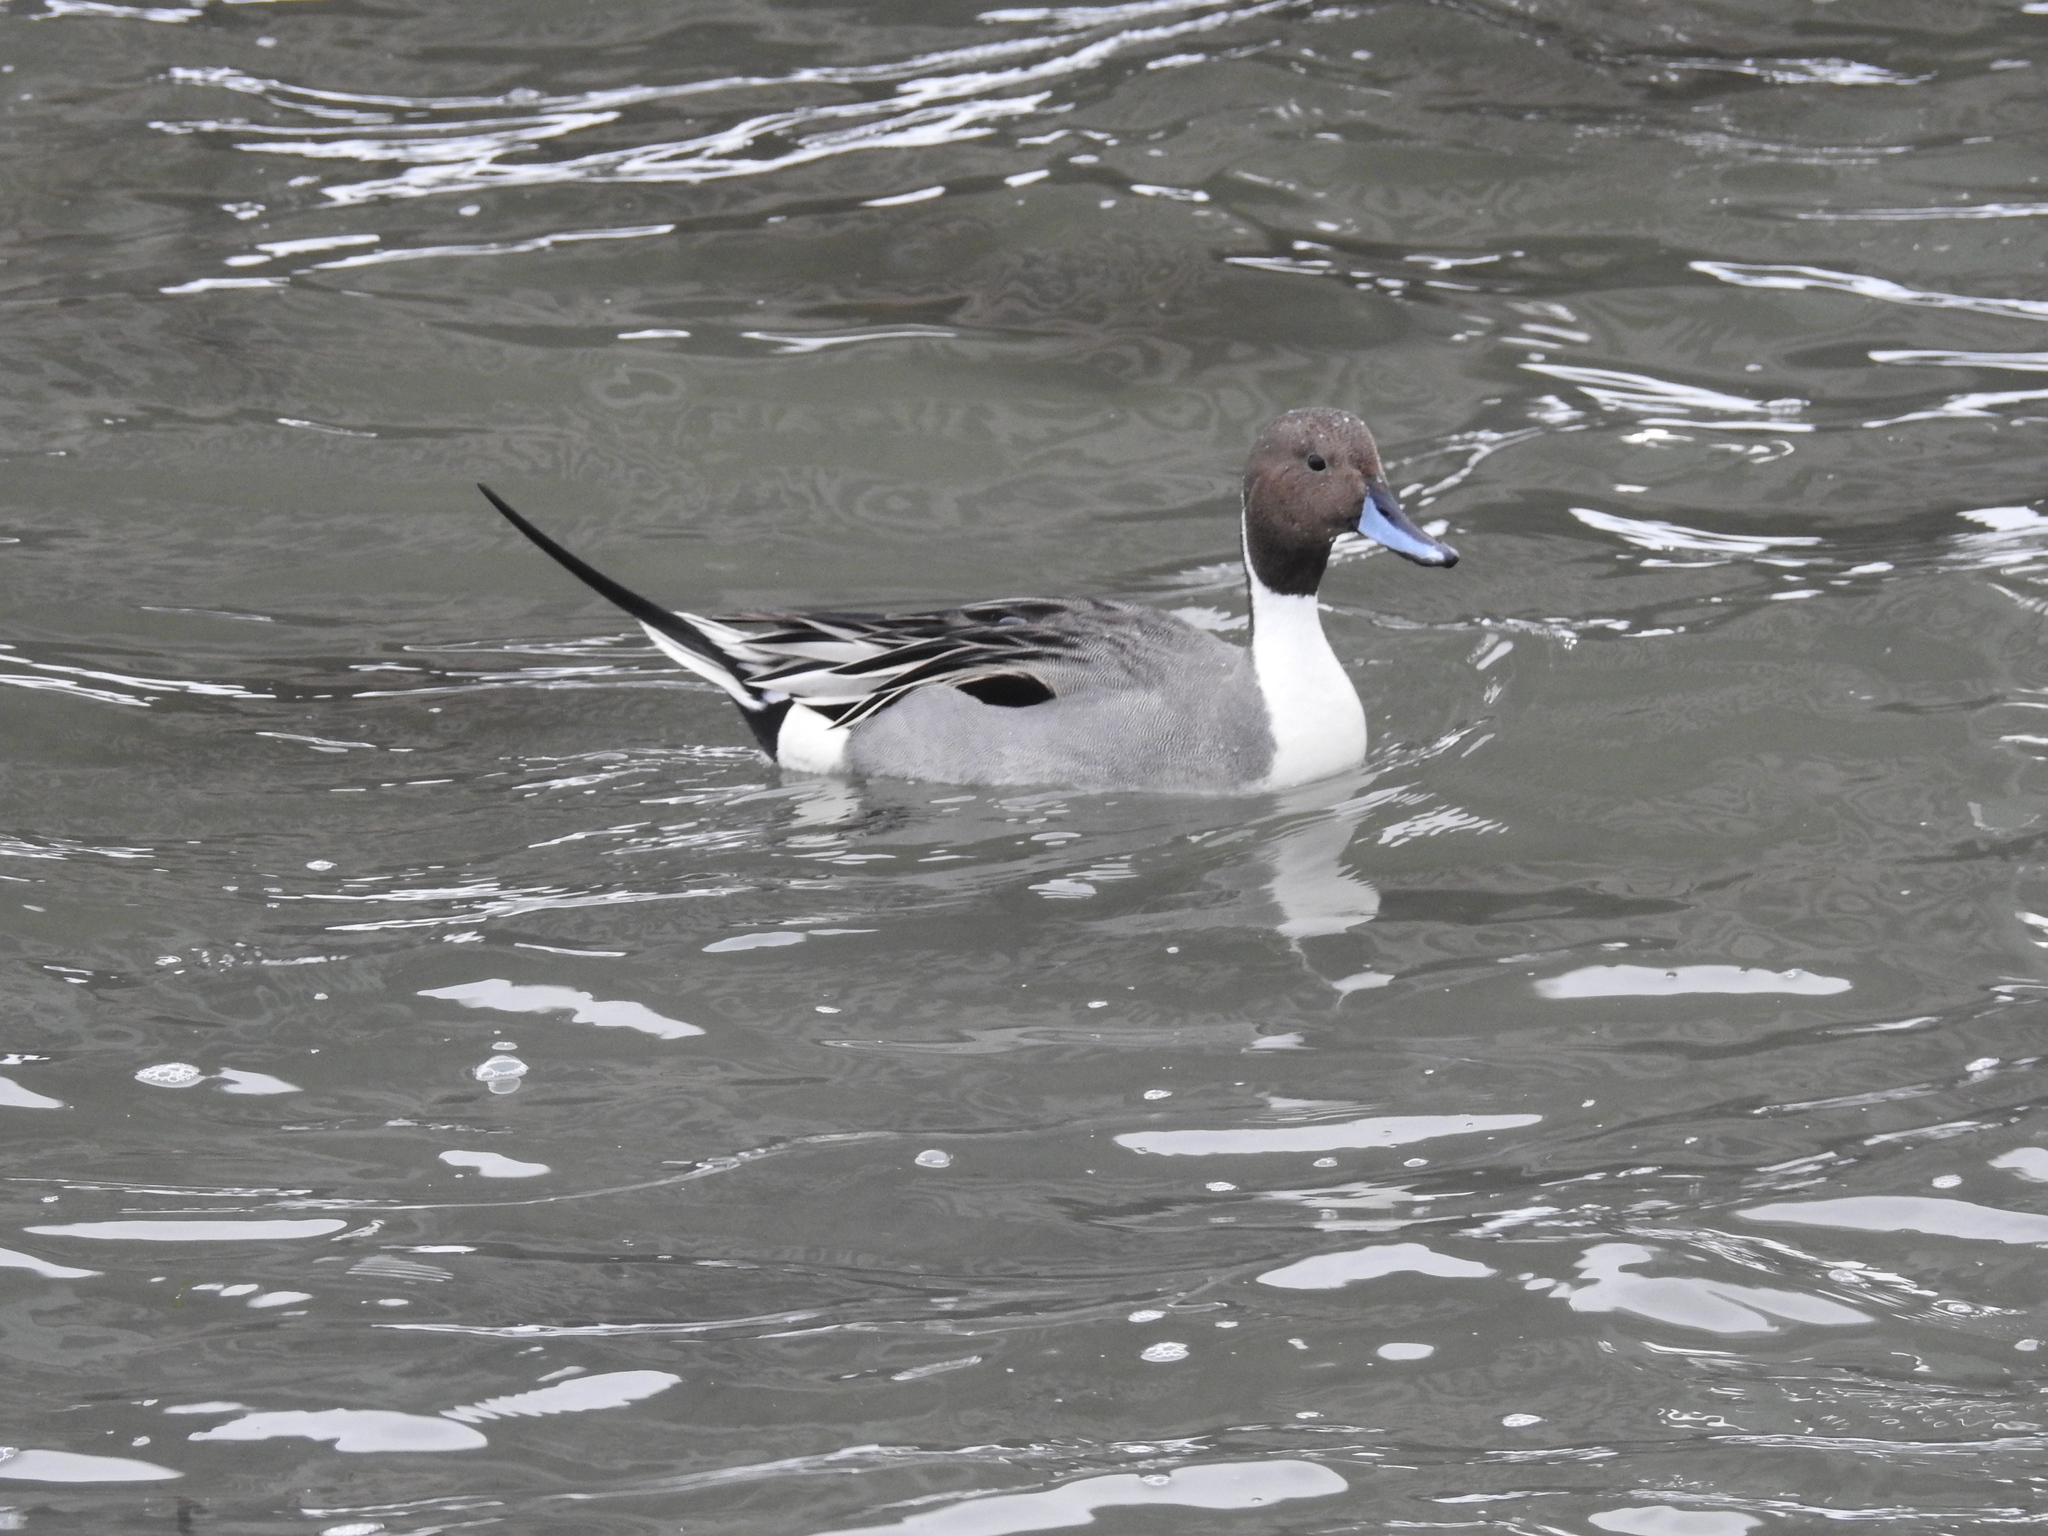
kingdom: Animalia
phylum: Chordata
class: Aves
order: Anseriformes
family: Anatidae
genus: Anas
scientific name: Anas acuta
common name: Northern pintail
